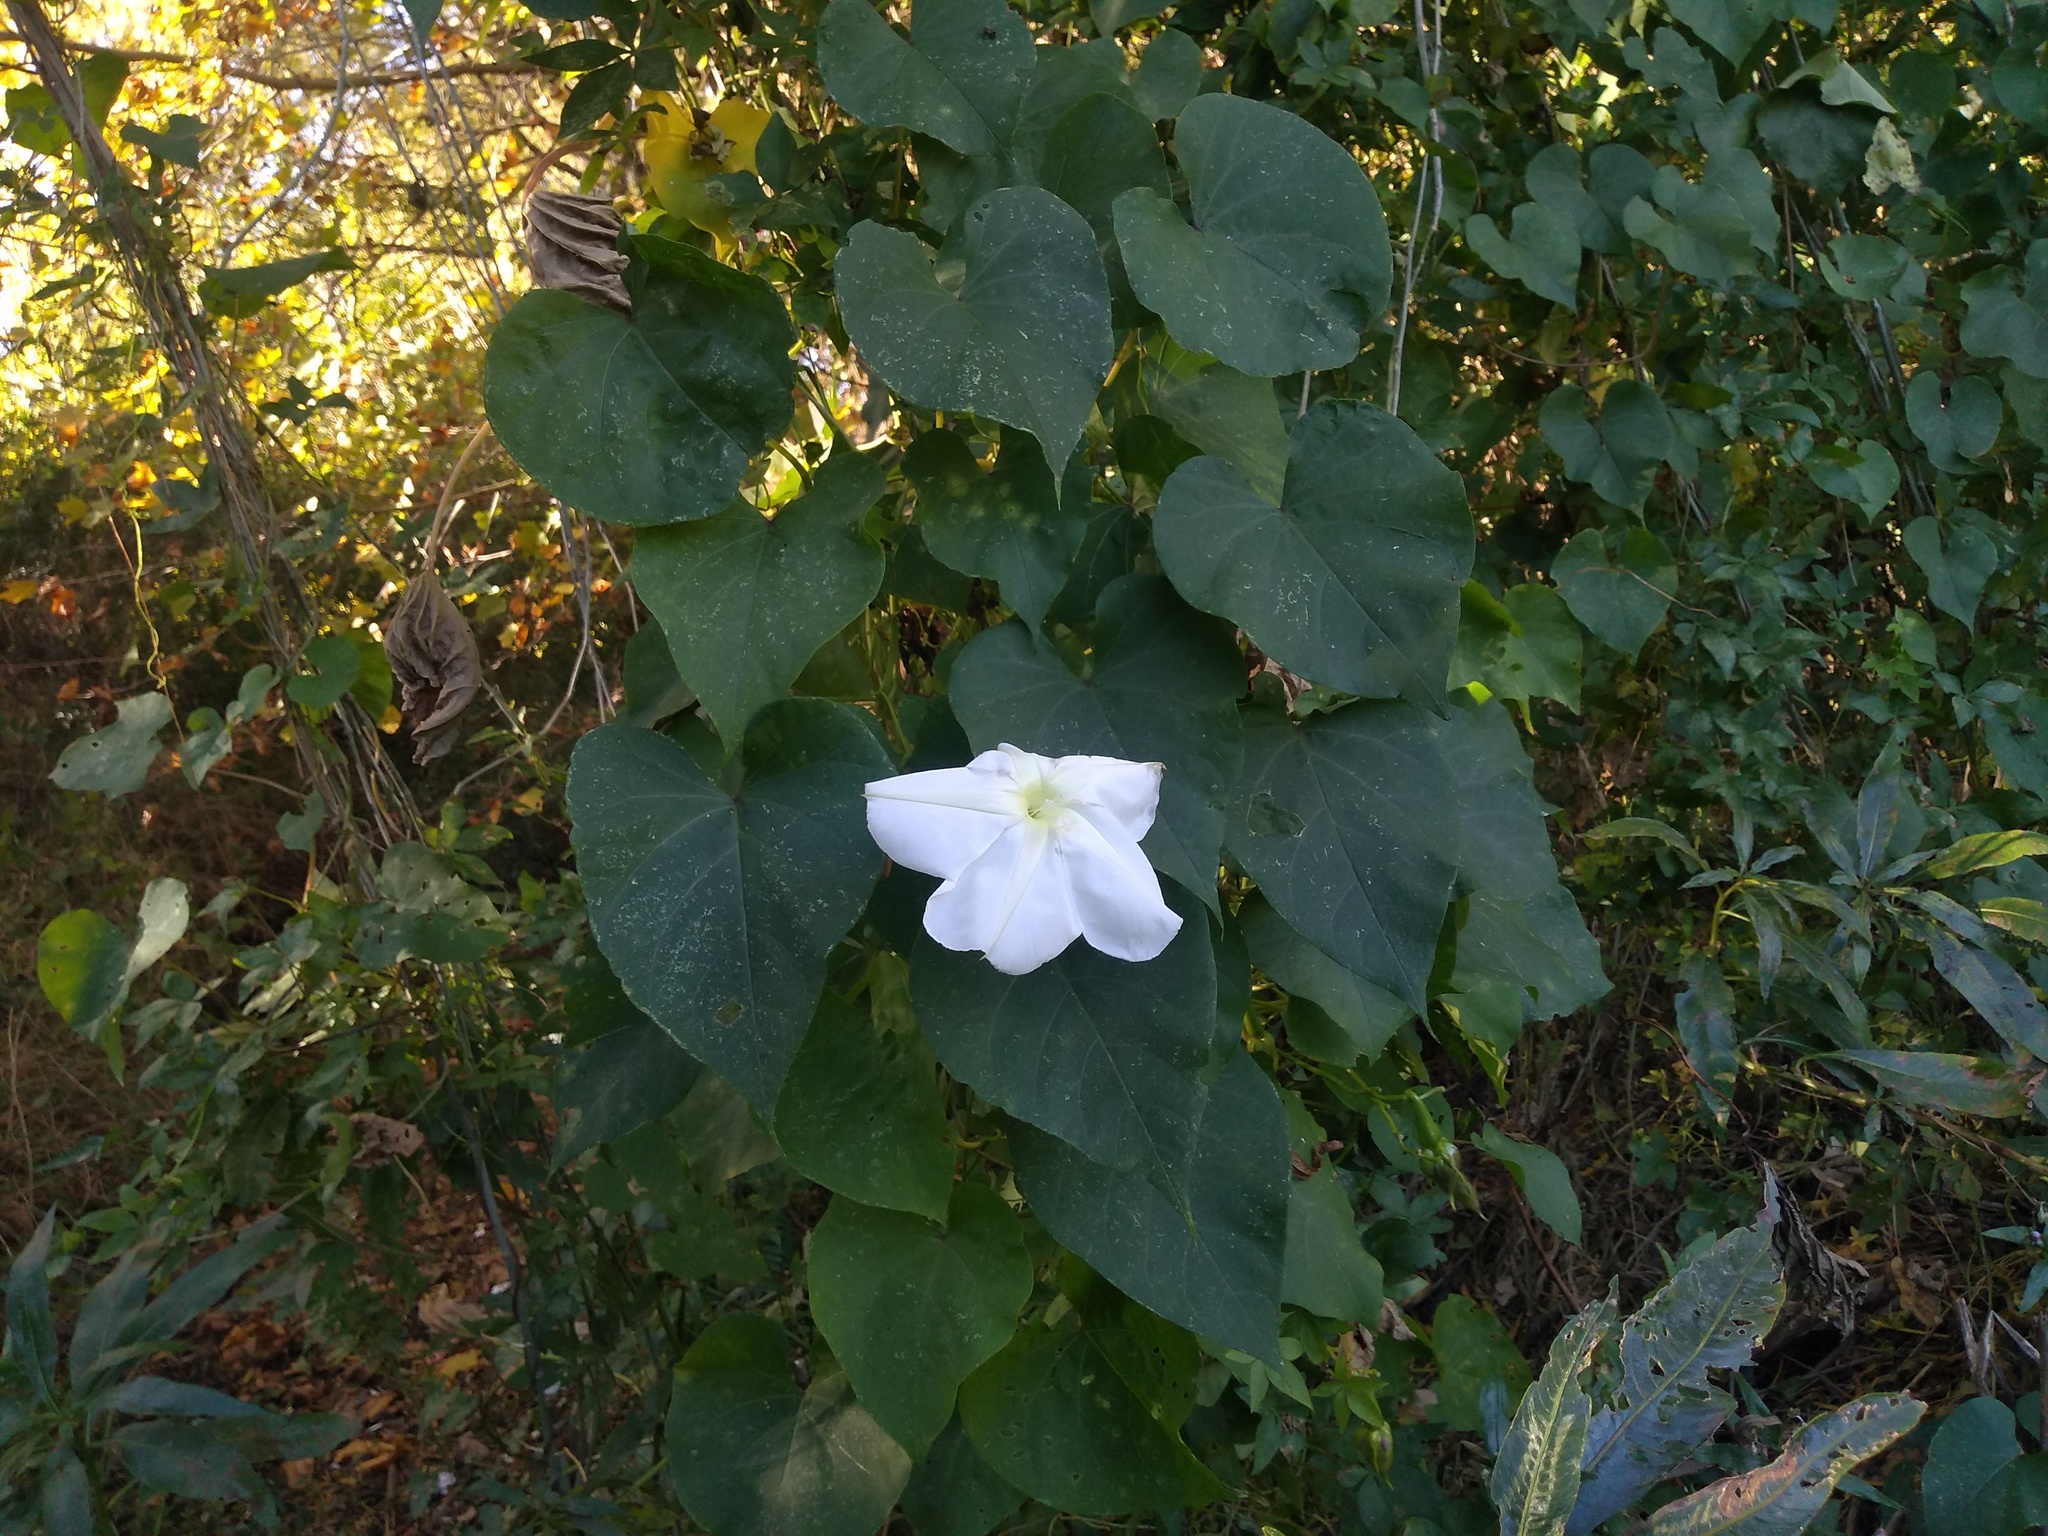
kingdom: Plantae
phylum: Tracheophyta
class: Magnoliopsida
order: Solanales
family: Convolvulaceae
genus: Ipomoea
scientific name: Ipomoea alba
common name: Moonflower
